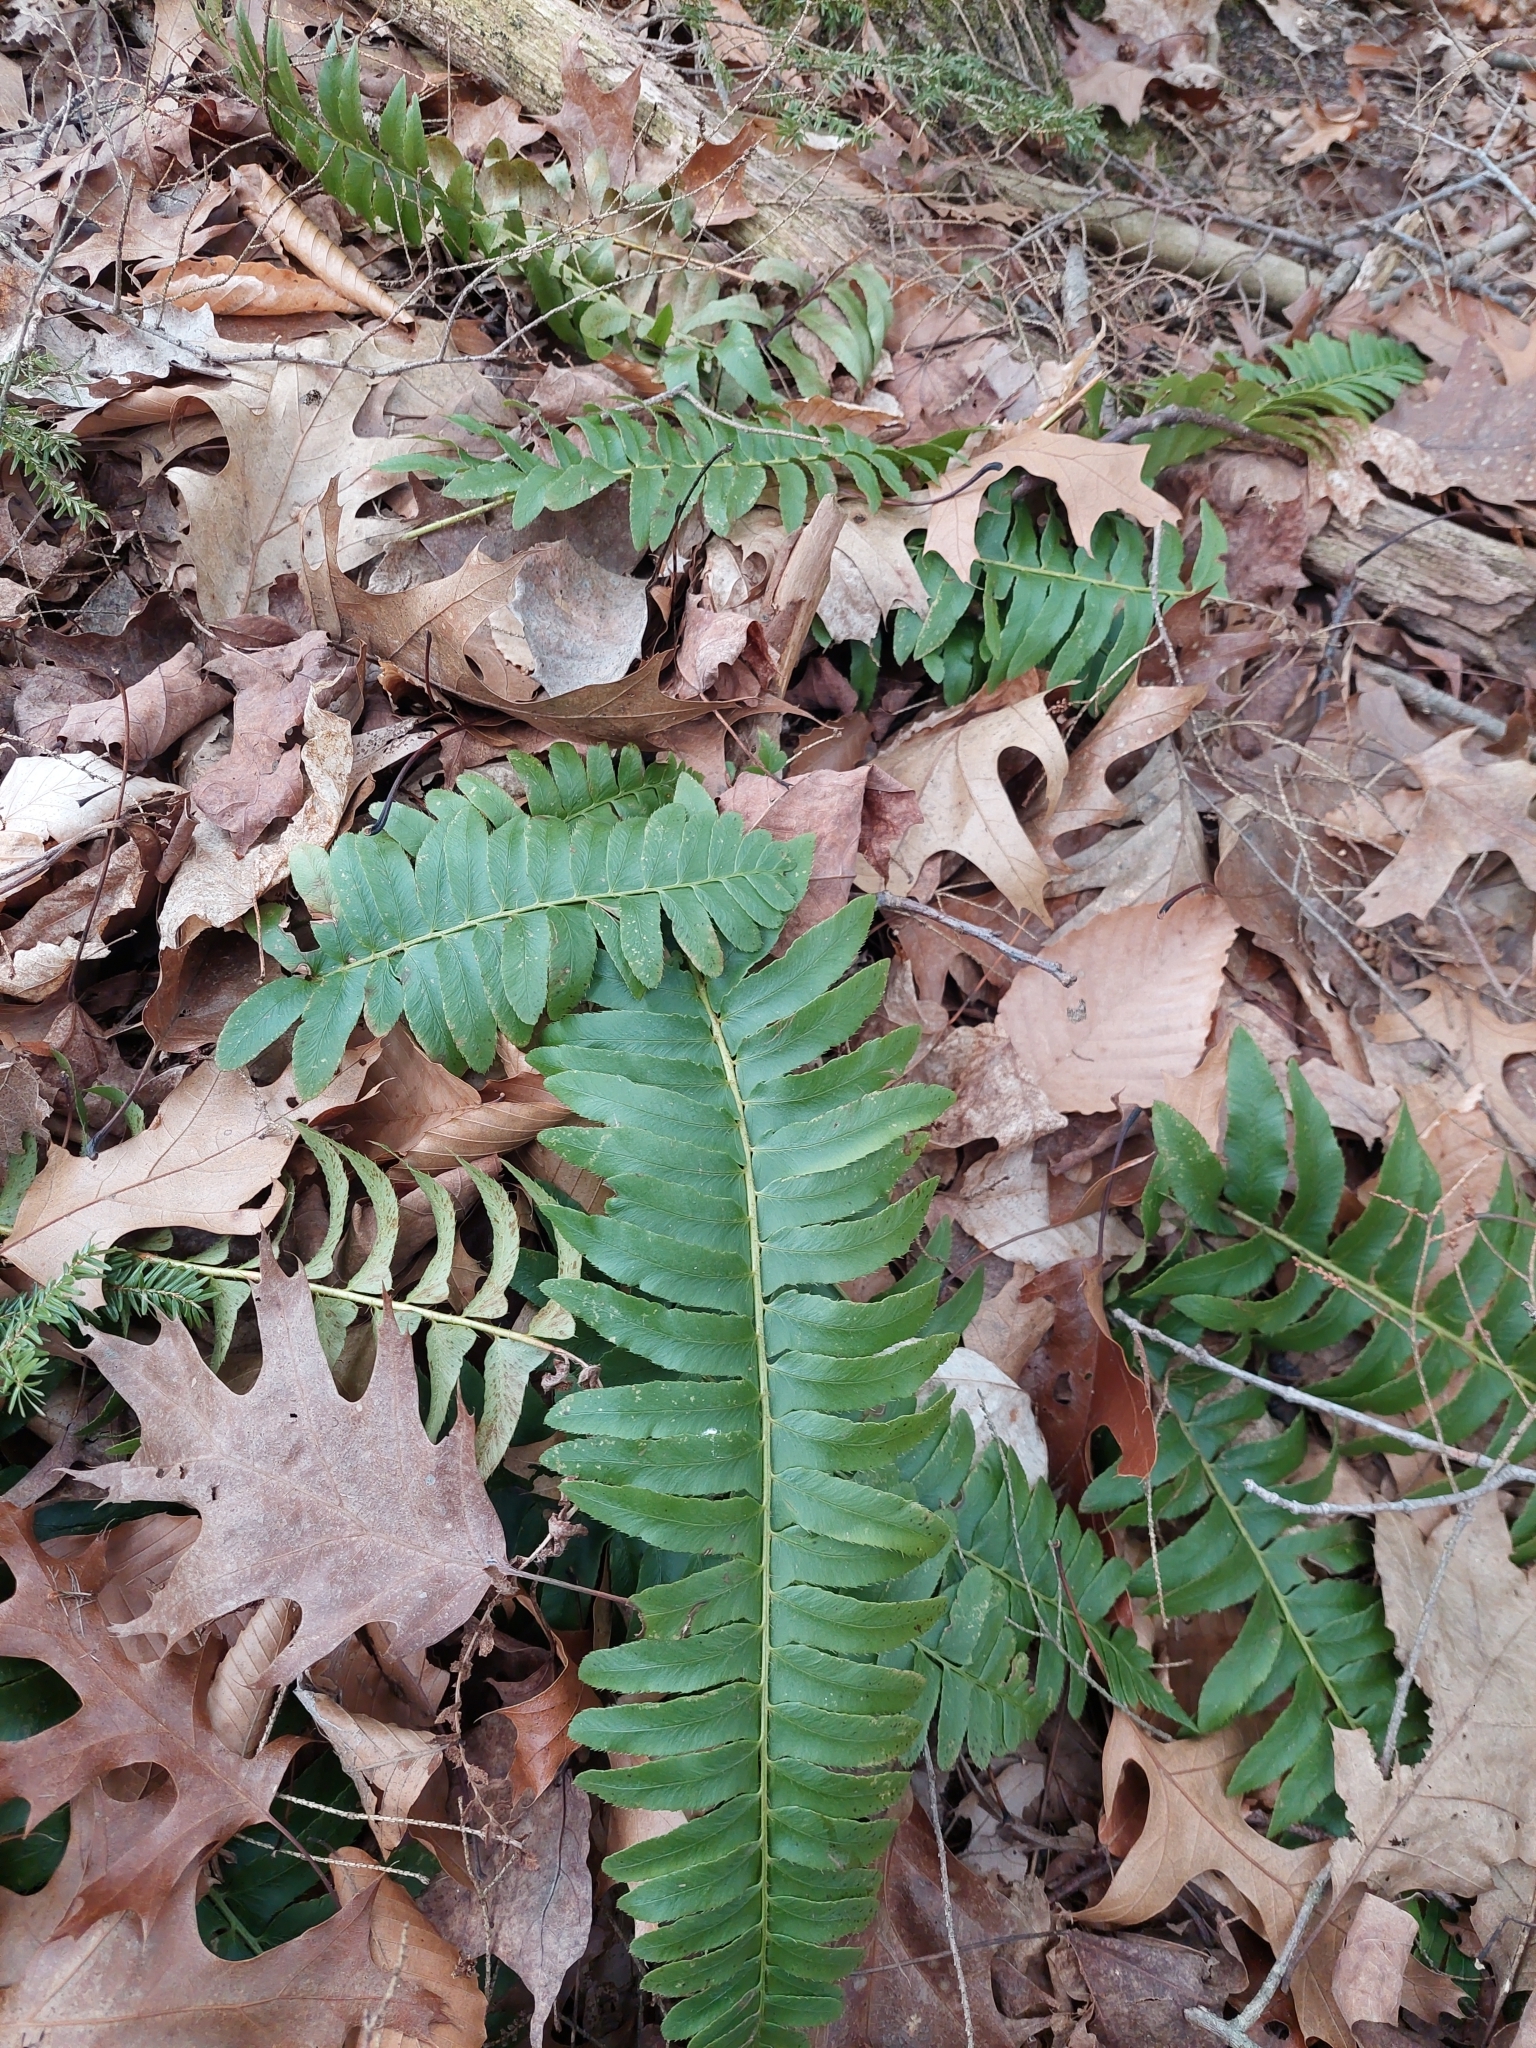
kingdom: Plantae
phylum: Tracheophyta
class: Polypodiopsida
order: Polypodiales
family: Dryopteridaceae
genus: Polystichum
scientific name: Polystichum acrostichoides
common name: Christmas fern
